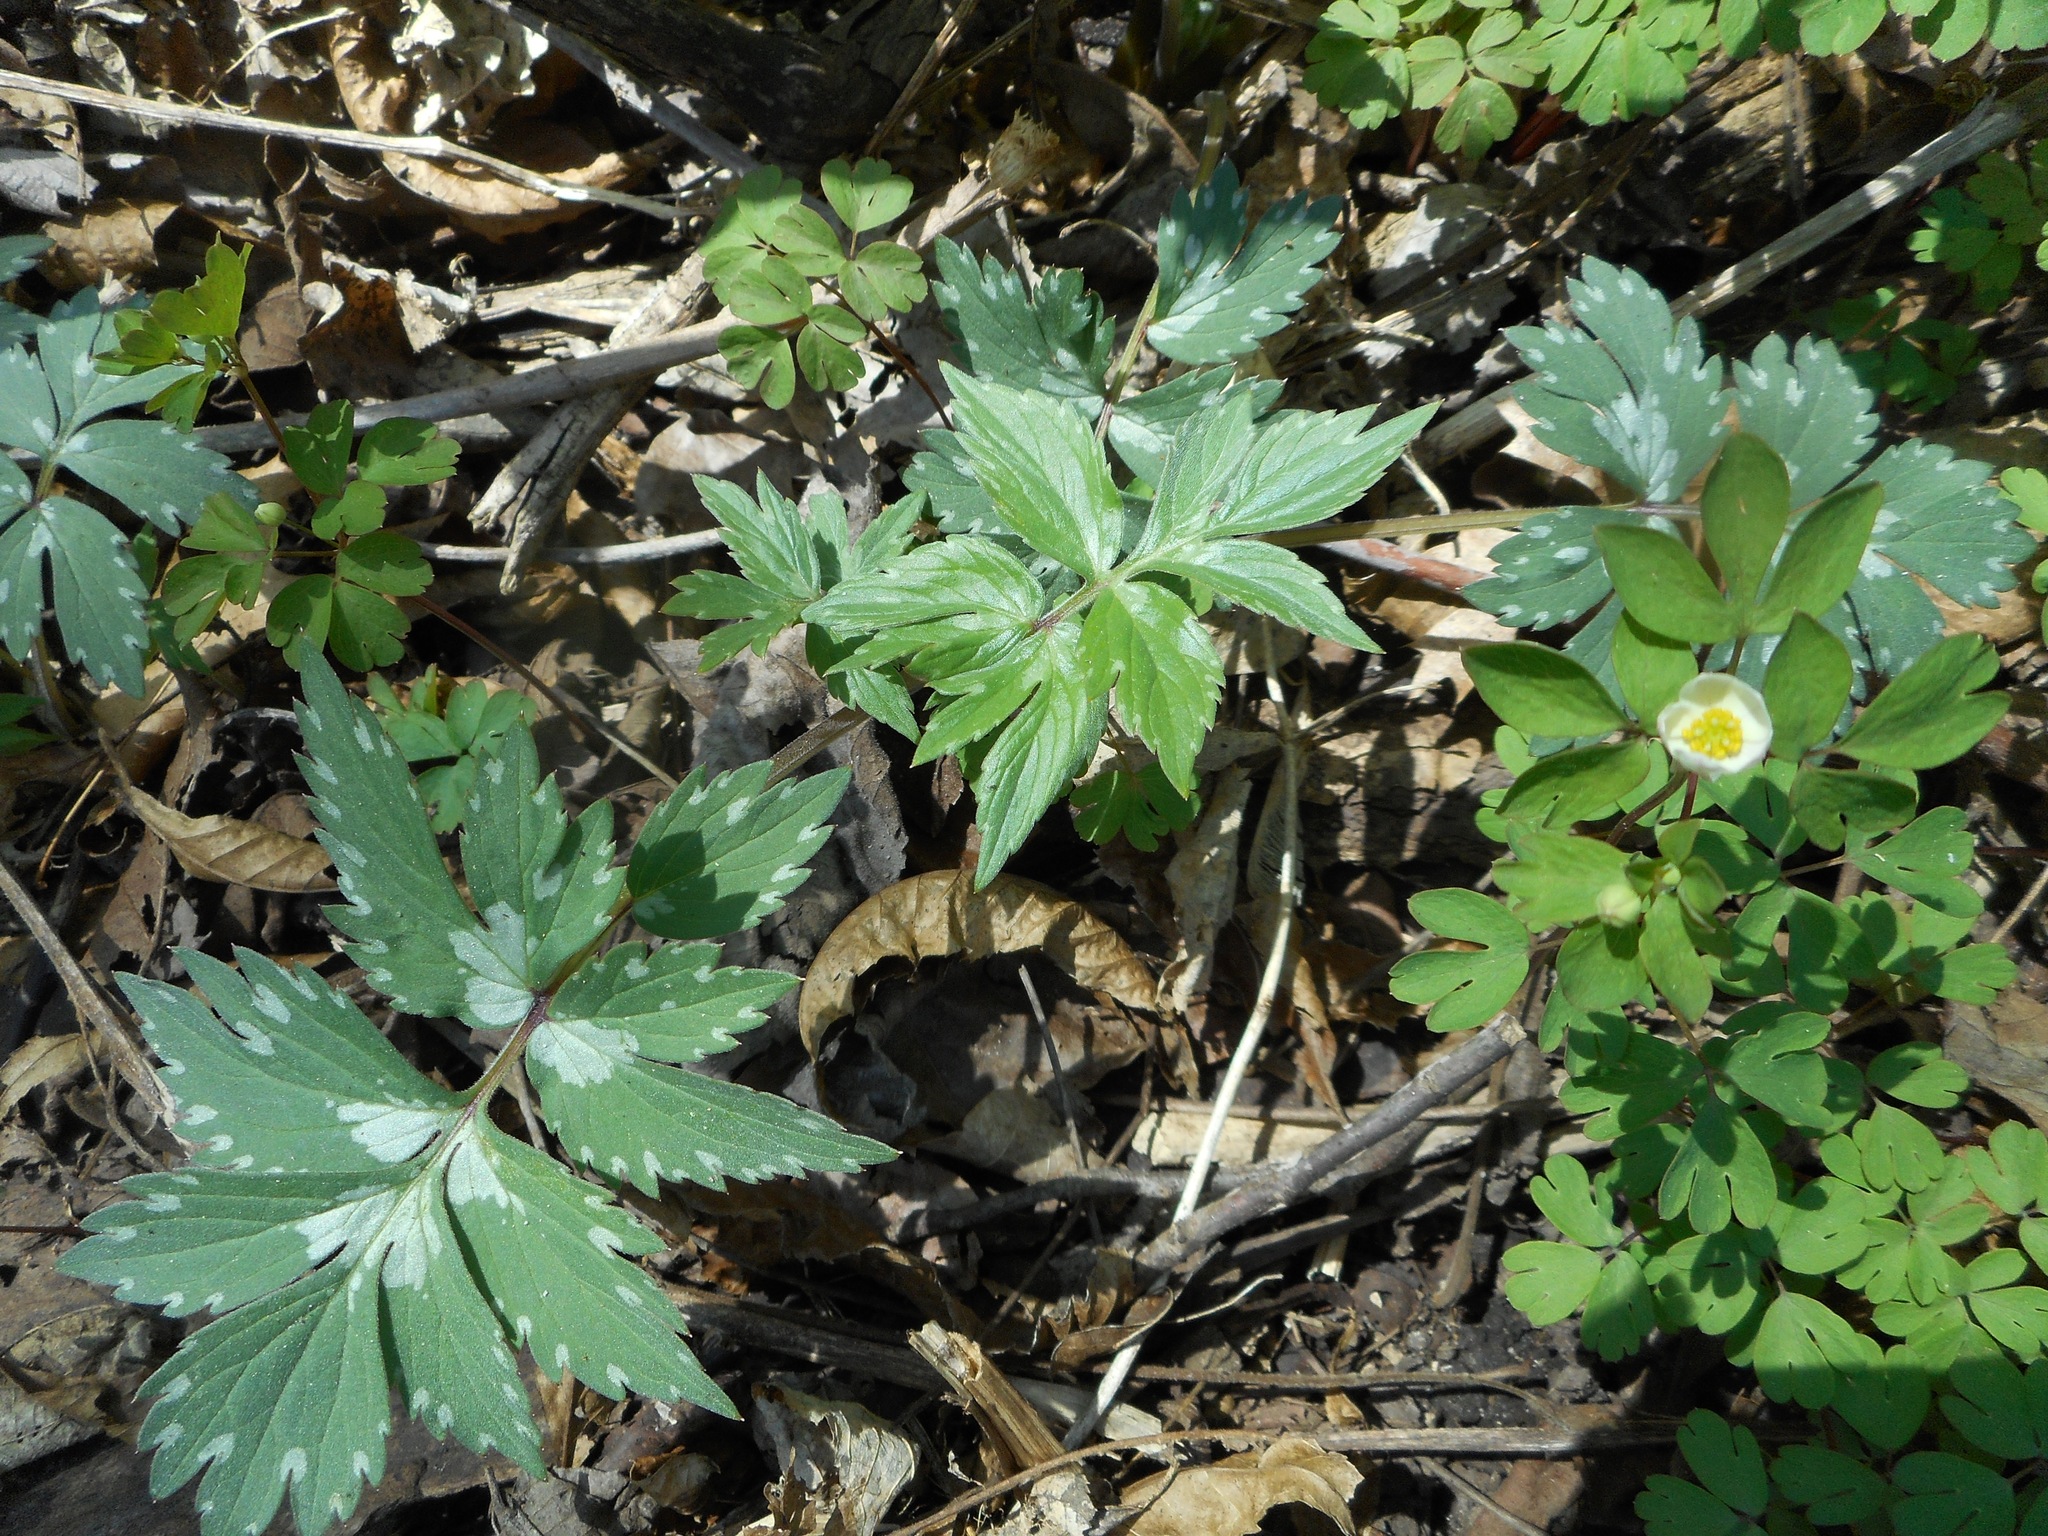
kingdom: Plantae
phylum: Tracheophyta
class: Magnoliopsida
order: Boraginales
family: Hydrophyllaceae
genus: Hydrophyllum
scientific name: Hydrophyllum virginianum
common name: Virginia waterleaf
